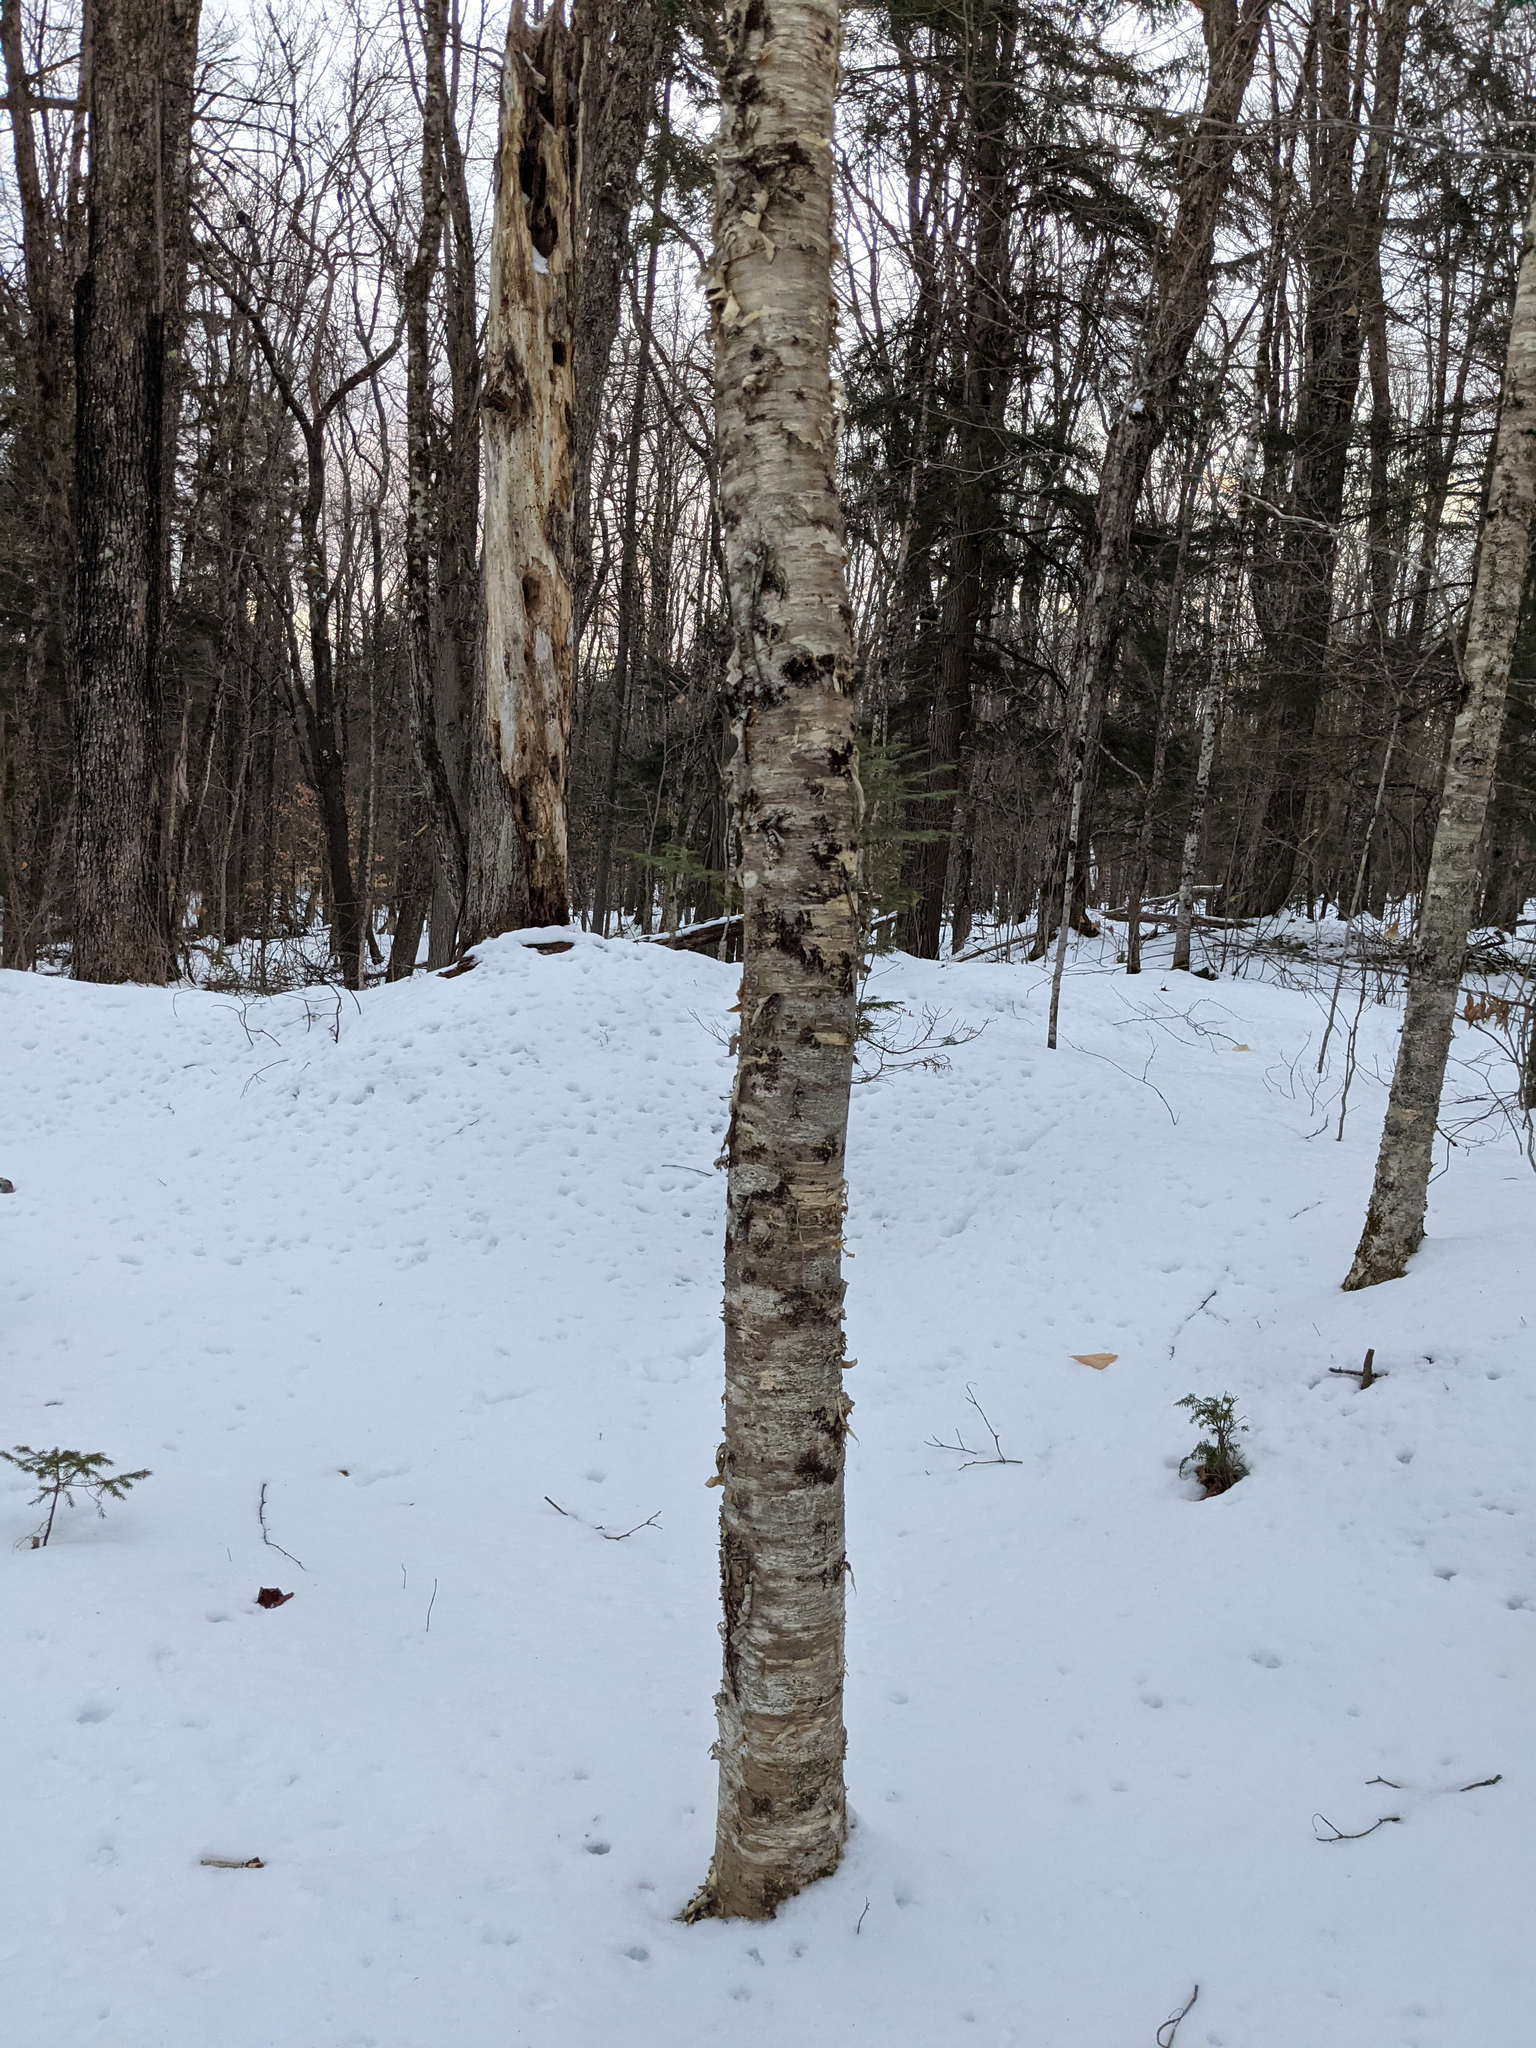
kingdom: Plantae
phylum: Tracheophyta
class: Magnoliopsida
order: Fagales
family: Betulaceae
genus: Betula
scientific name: Betula alleghaniensis
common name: Yellow birch
